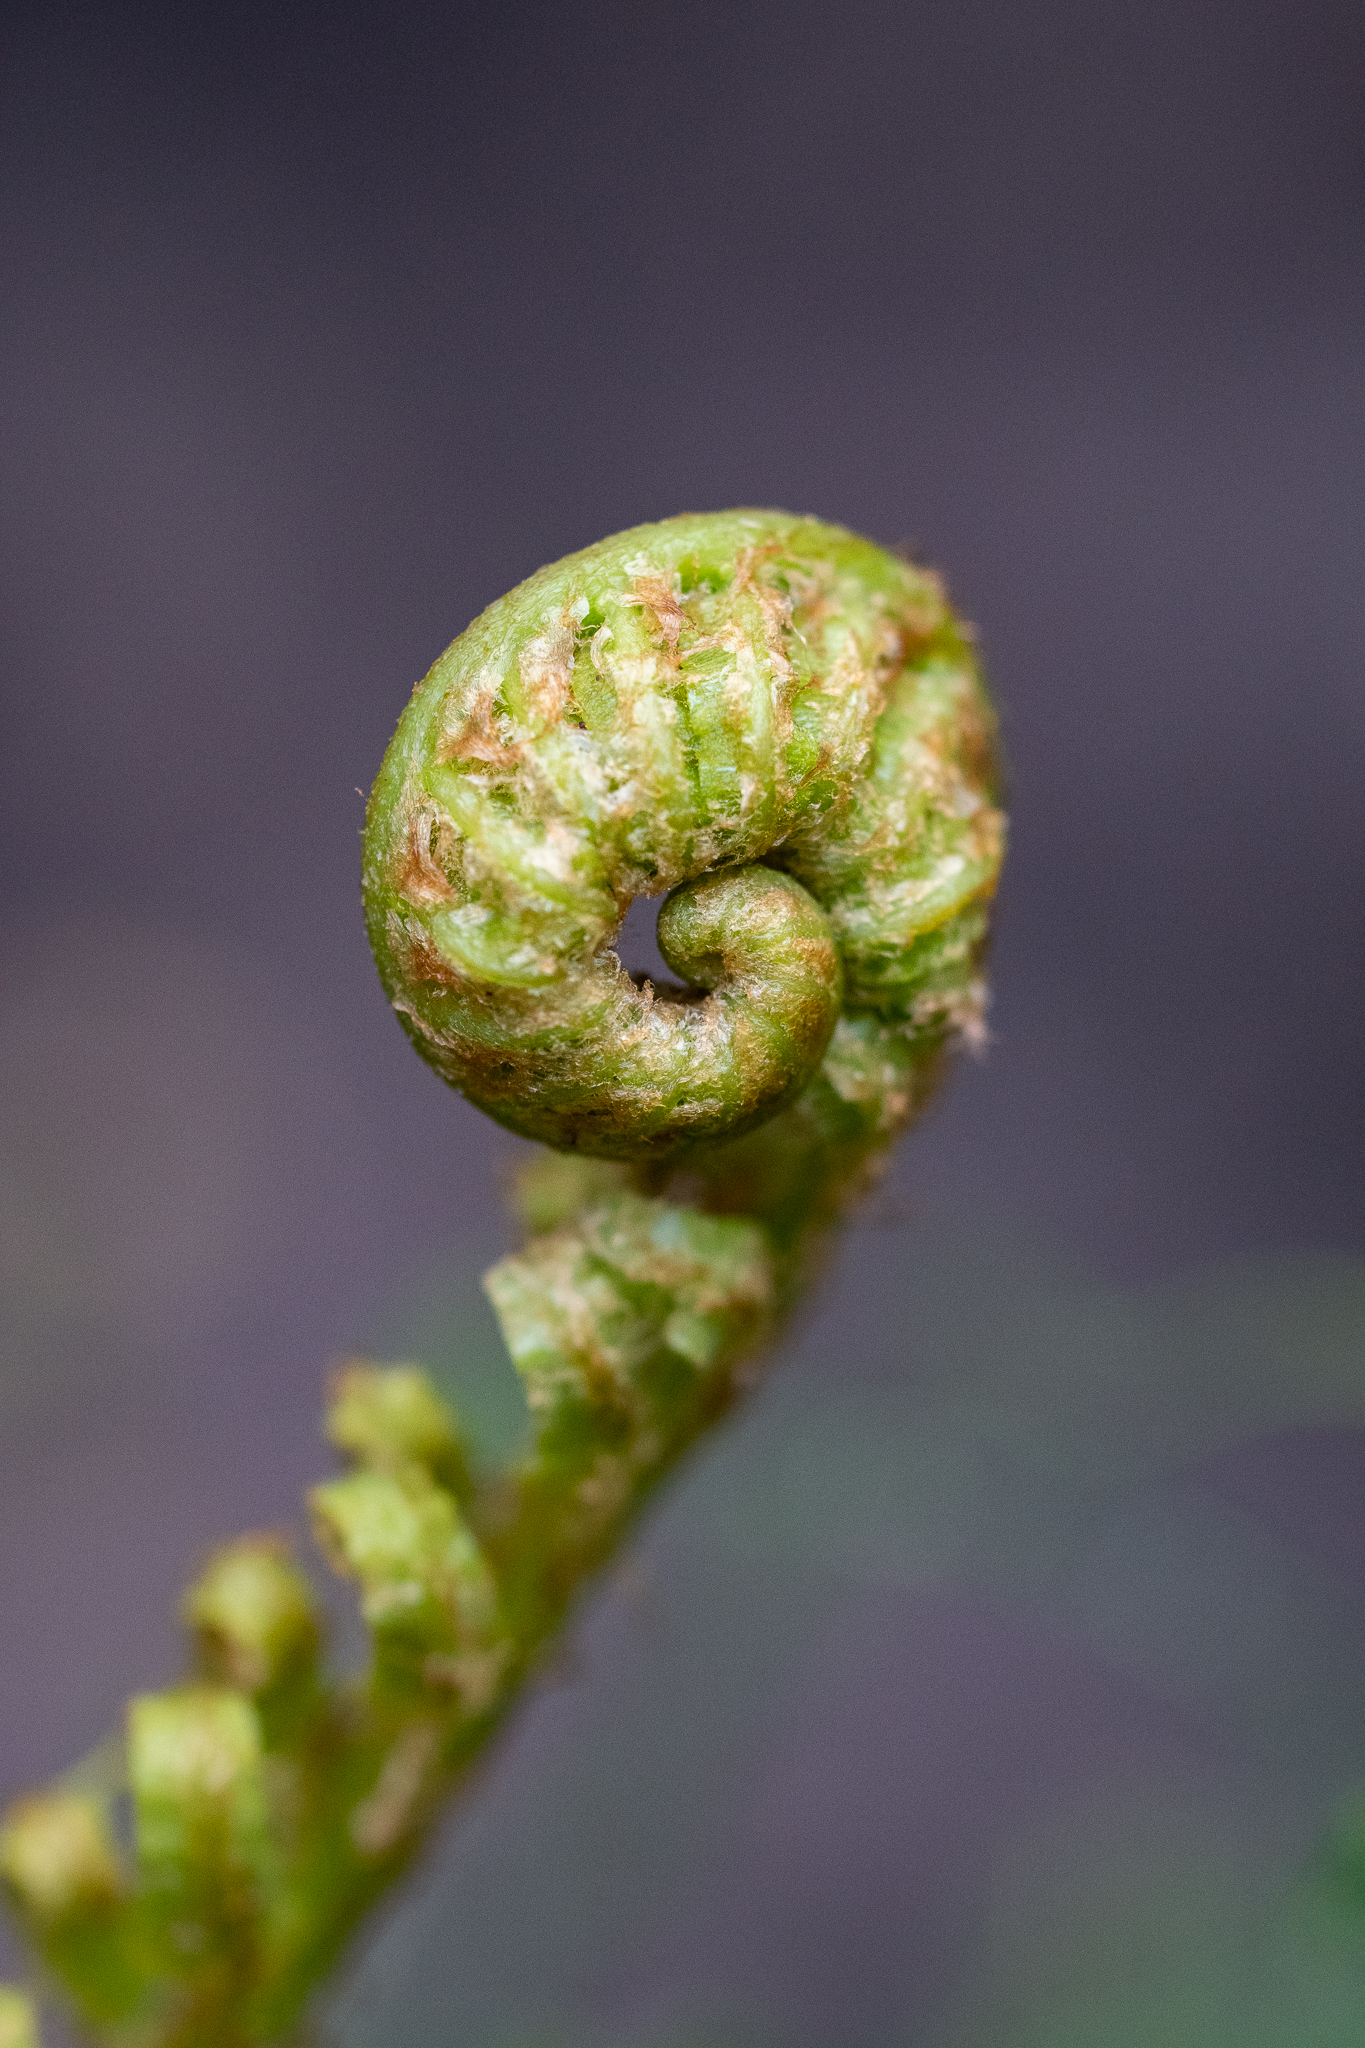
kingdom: Plantae
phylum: Tracheophyta
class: Polypodiopsida
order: Polypodiales
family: Blechnaceae
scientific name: Blechnaceae
